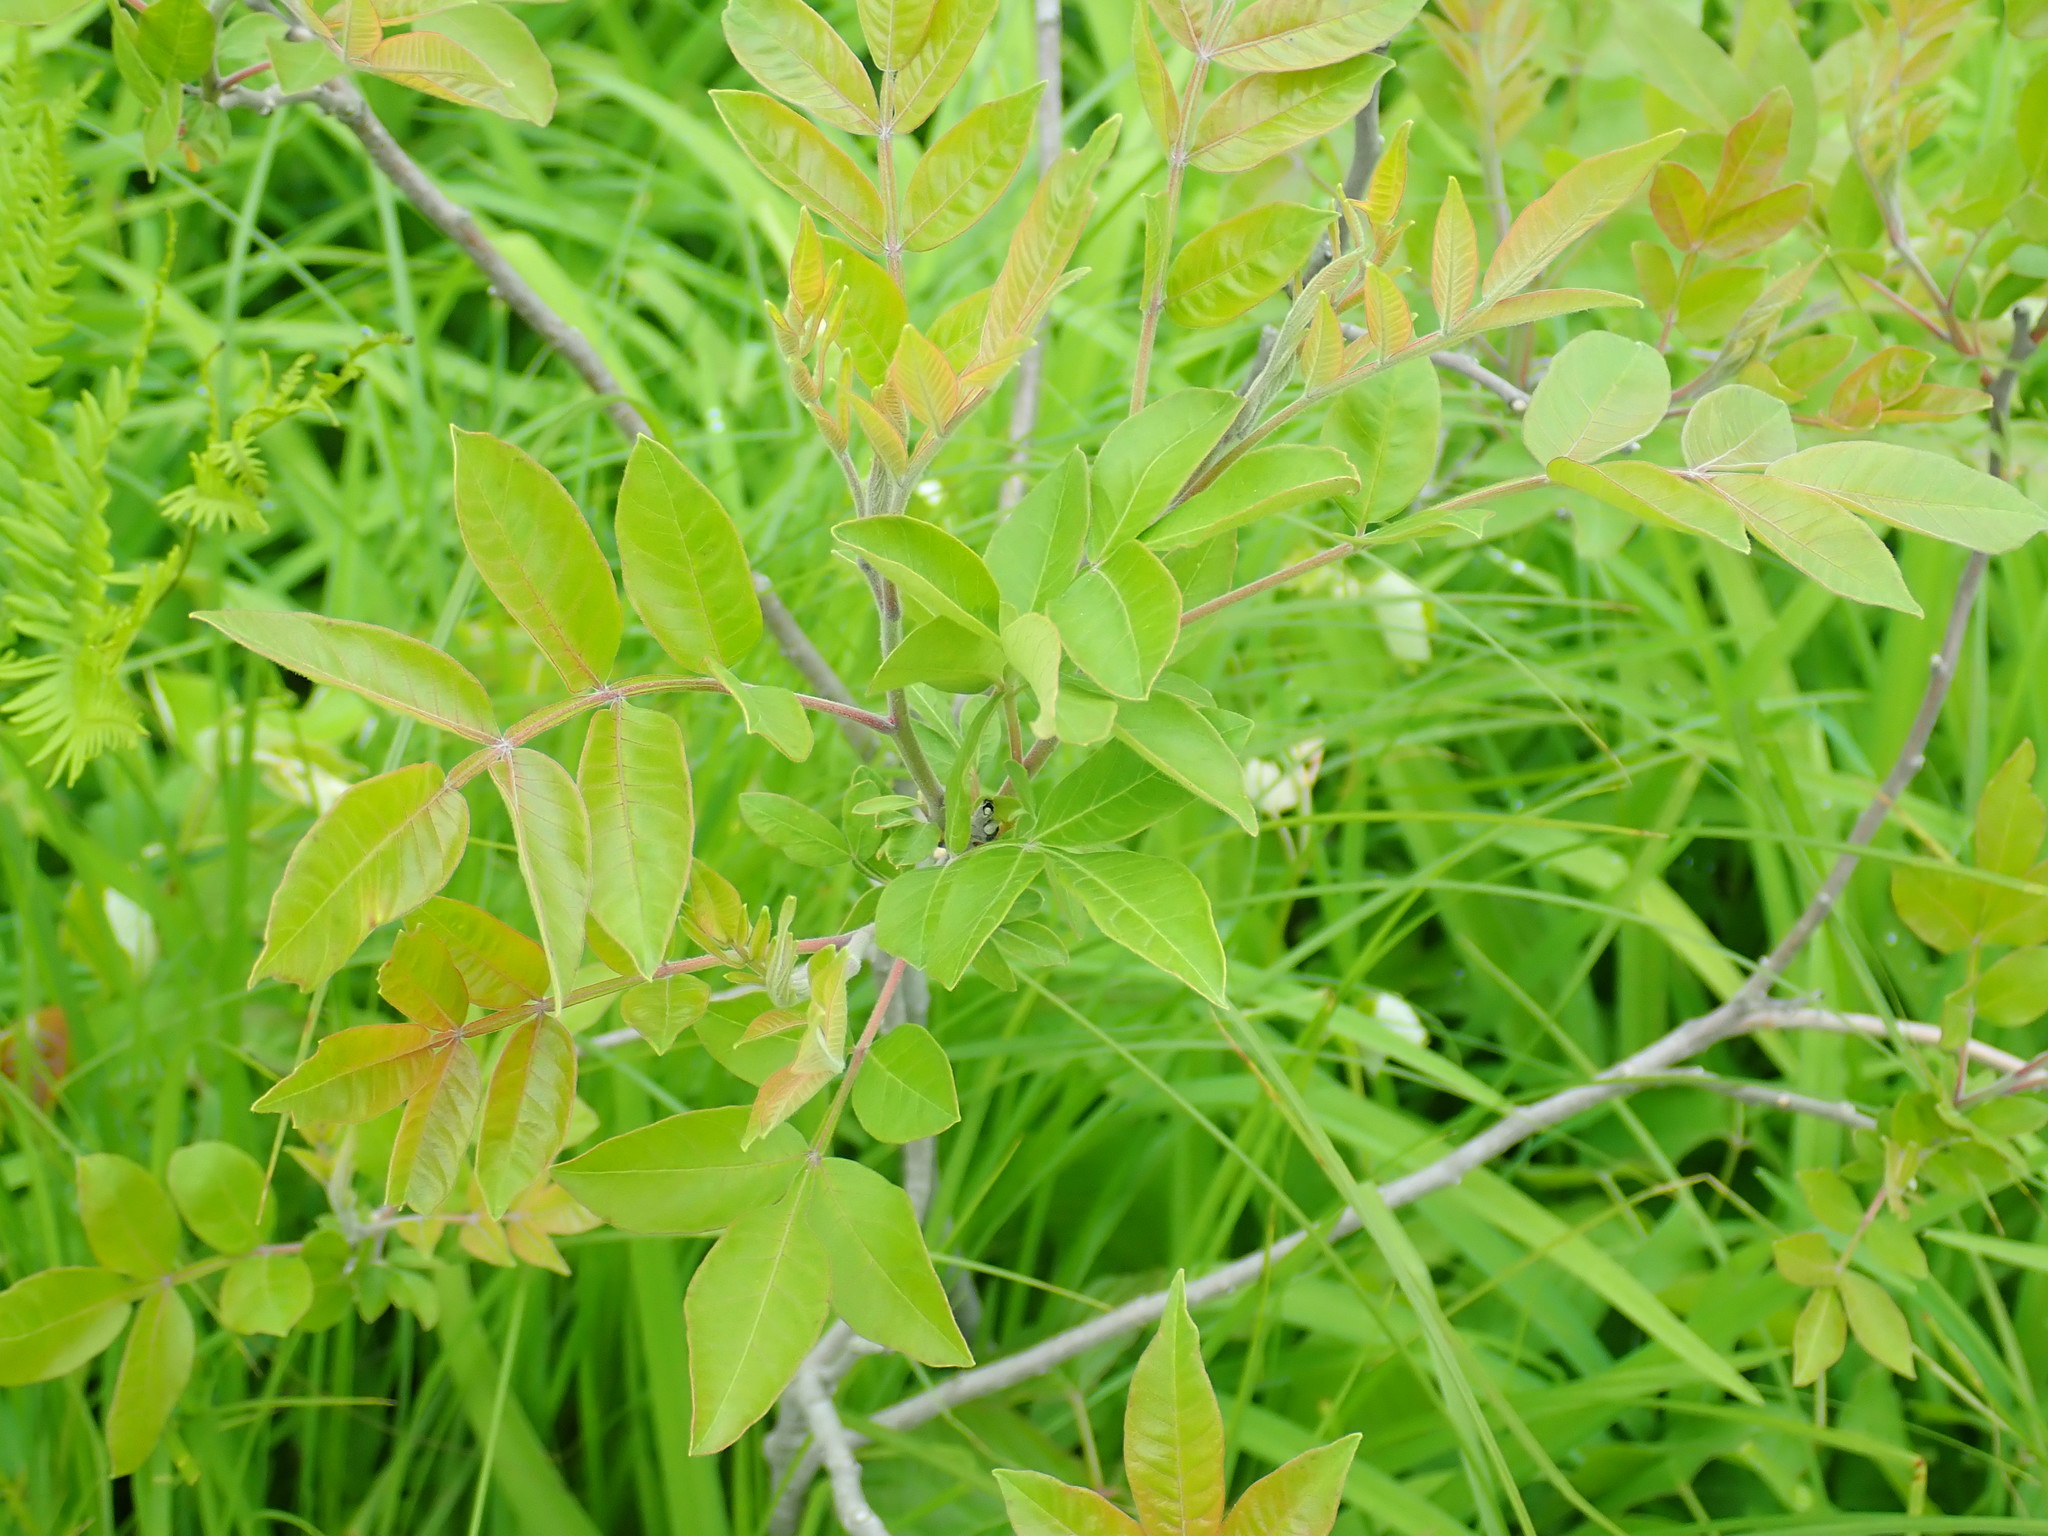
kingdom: Plantae
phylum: Tracheophyta
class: Magnoliopsida
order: Sapindales
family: Anacardiaceae
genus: Rhus
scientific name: Rhus copallina
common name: Shining sumac
